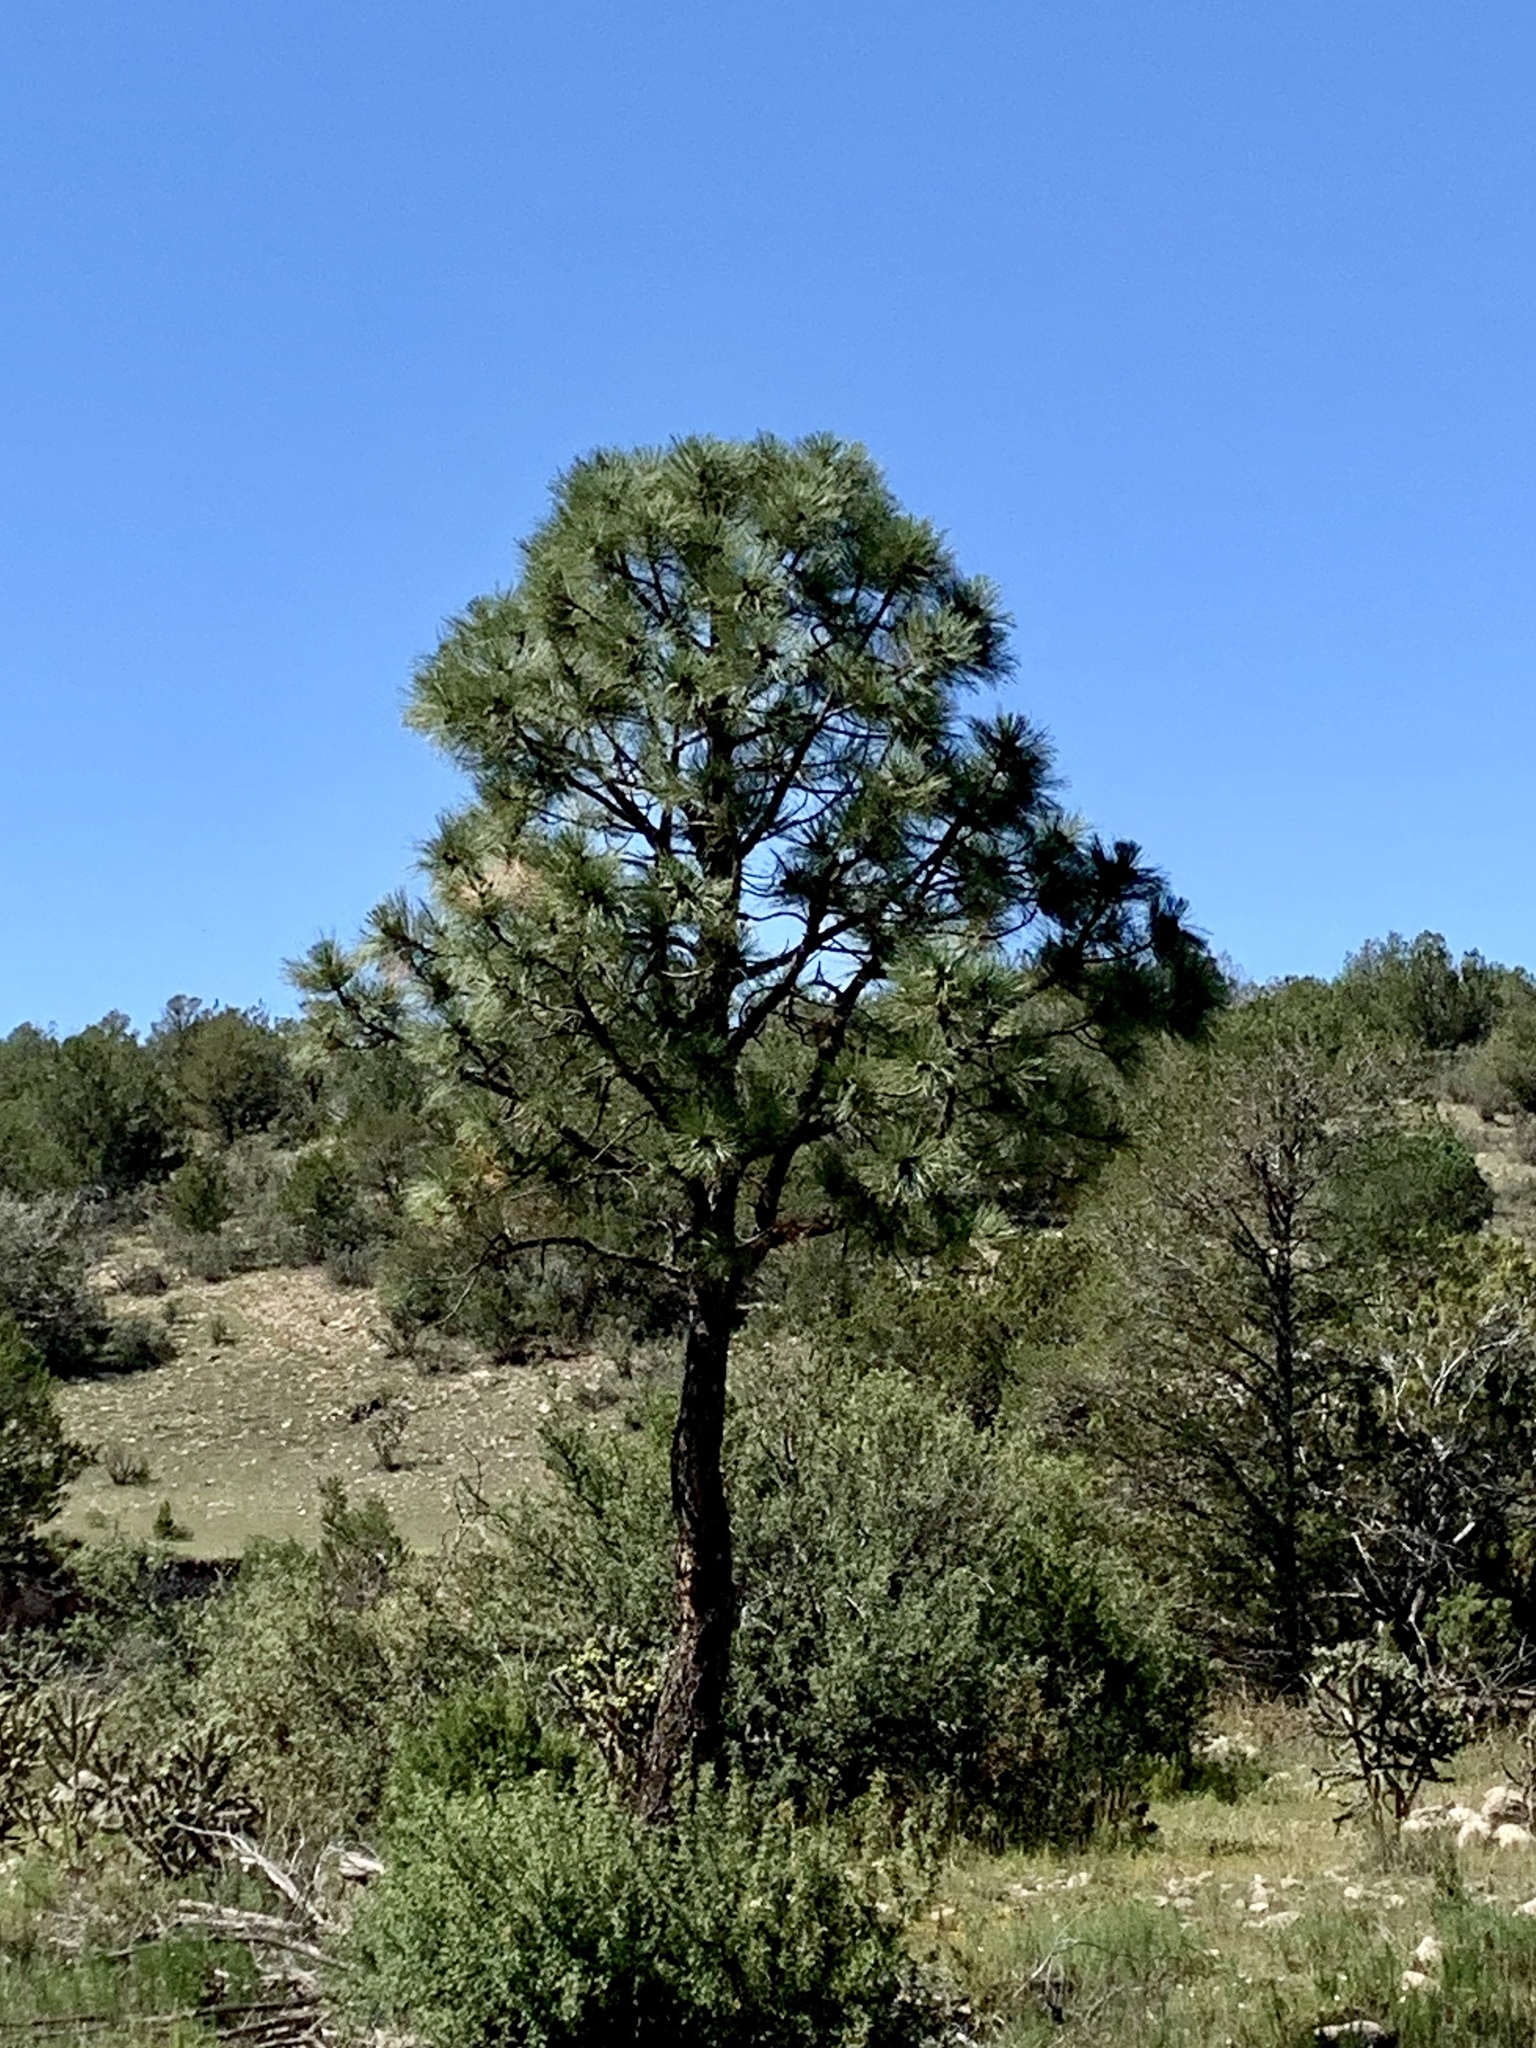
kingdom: Plantae
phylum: Tracheophyta
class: Pinopsida
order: Pinales
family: Pinaceae
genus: Pinus
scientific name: Pinus ponderosa
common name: Western yellow-pine
